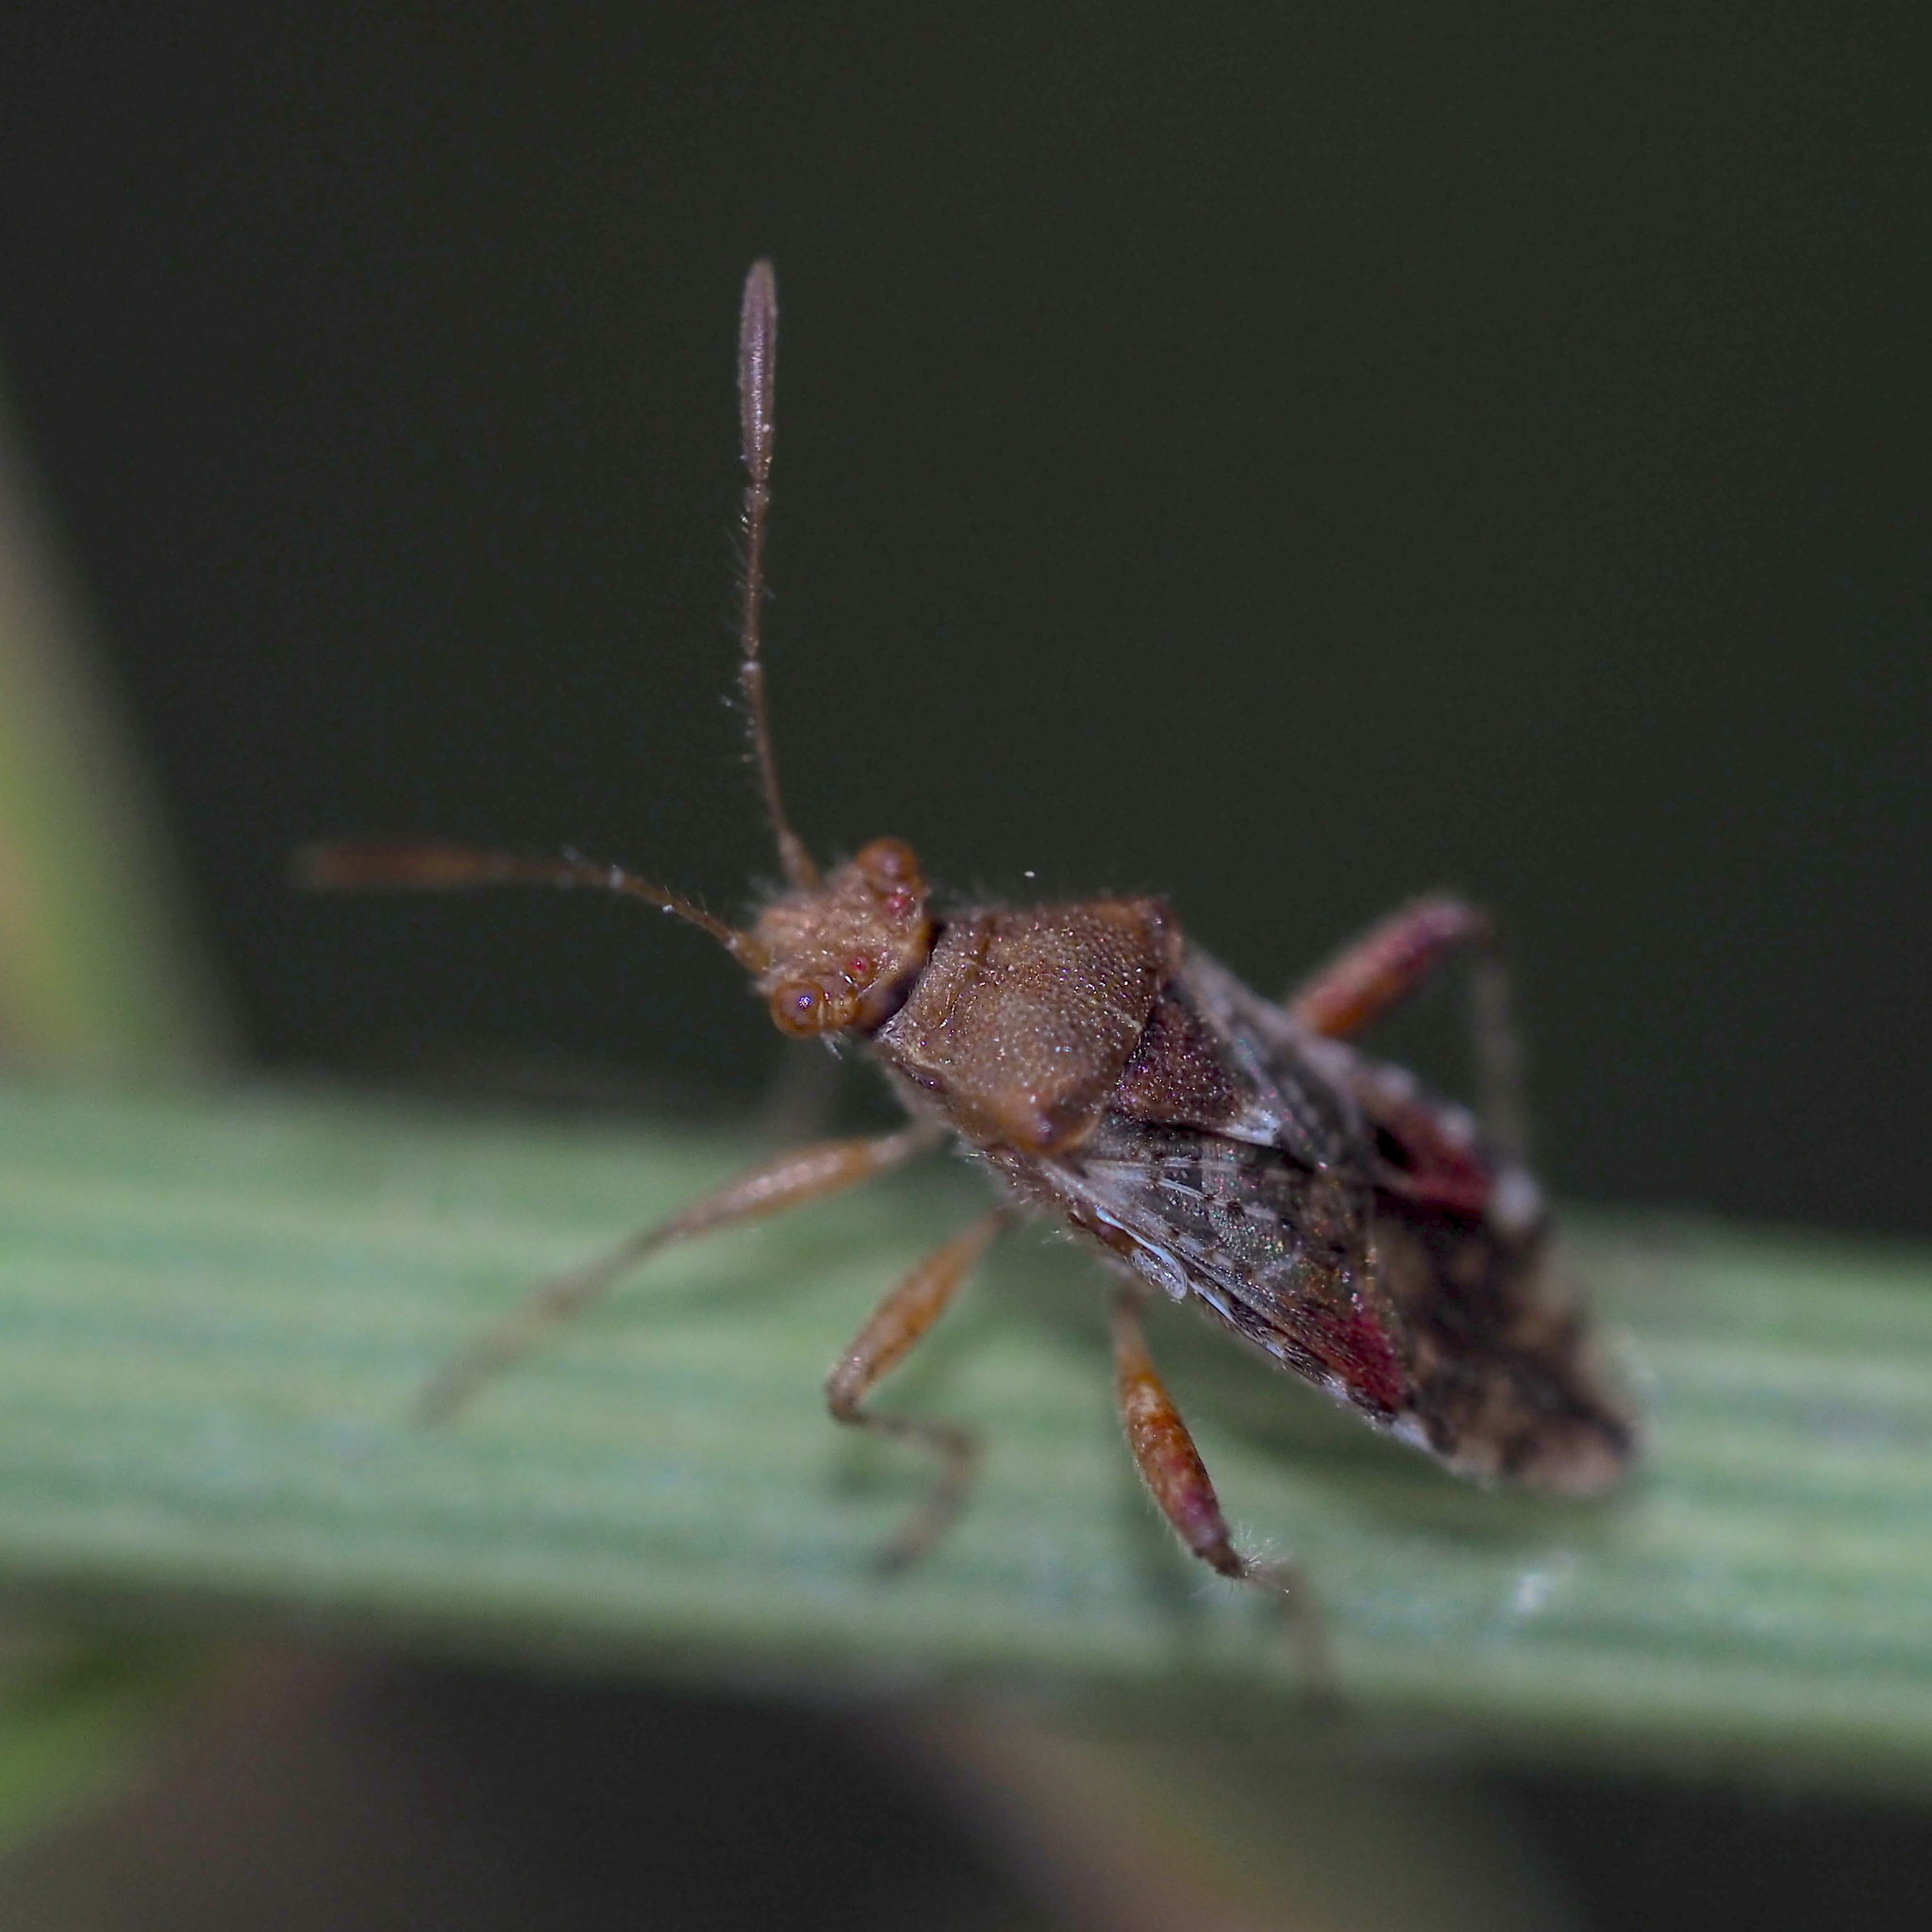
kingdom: Animalia
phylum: Arthropoda
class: Insecta
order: Hemiptera
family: Rhopalidae
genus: Rhopalus
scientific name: Rhopalus subrufus
